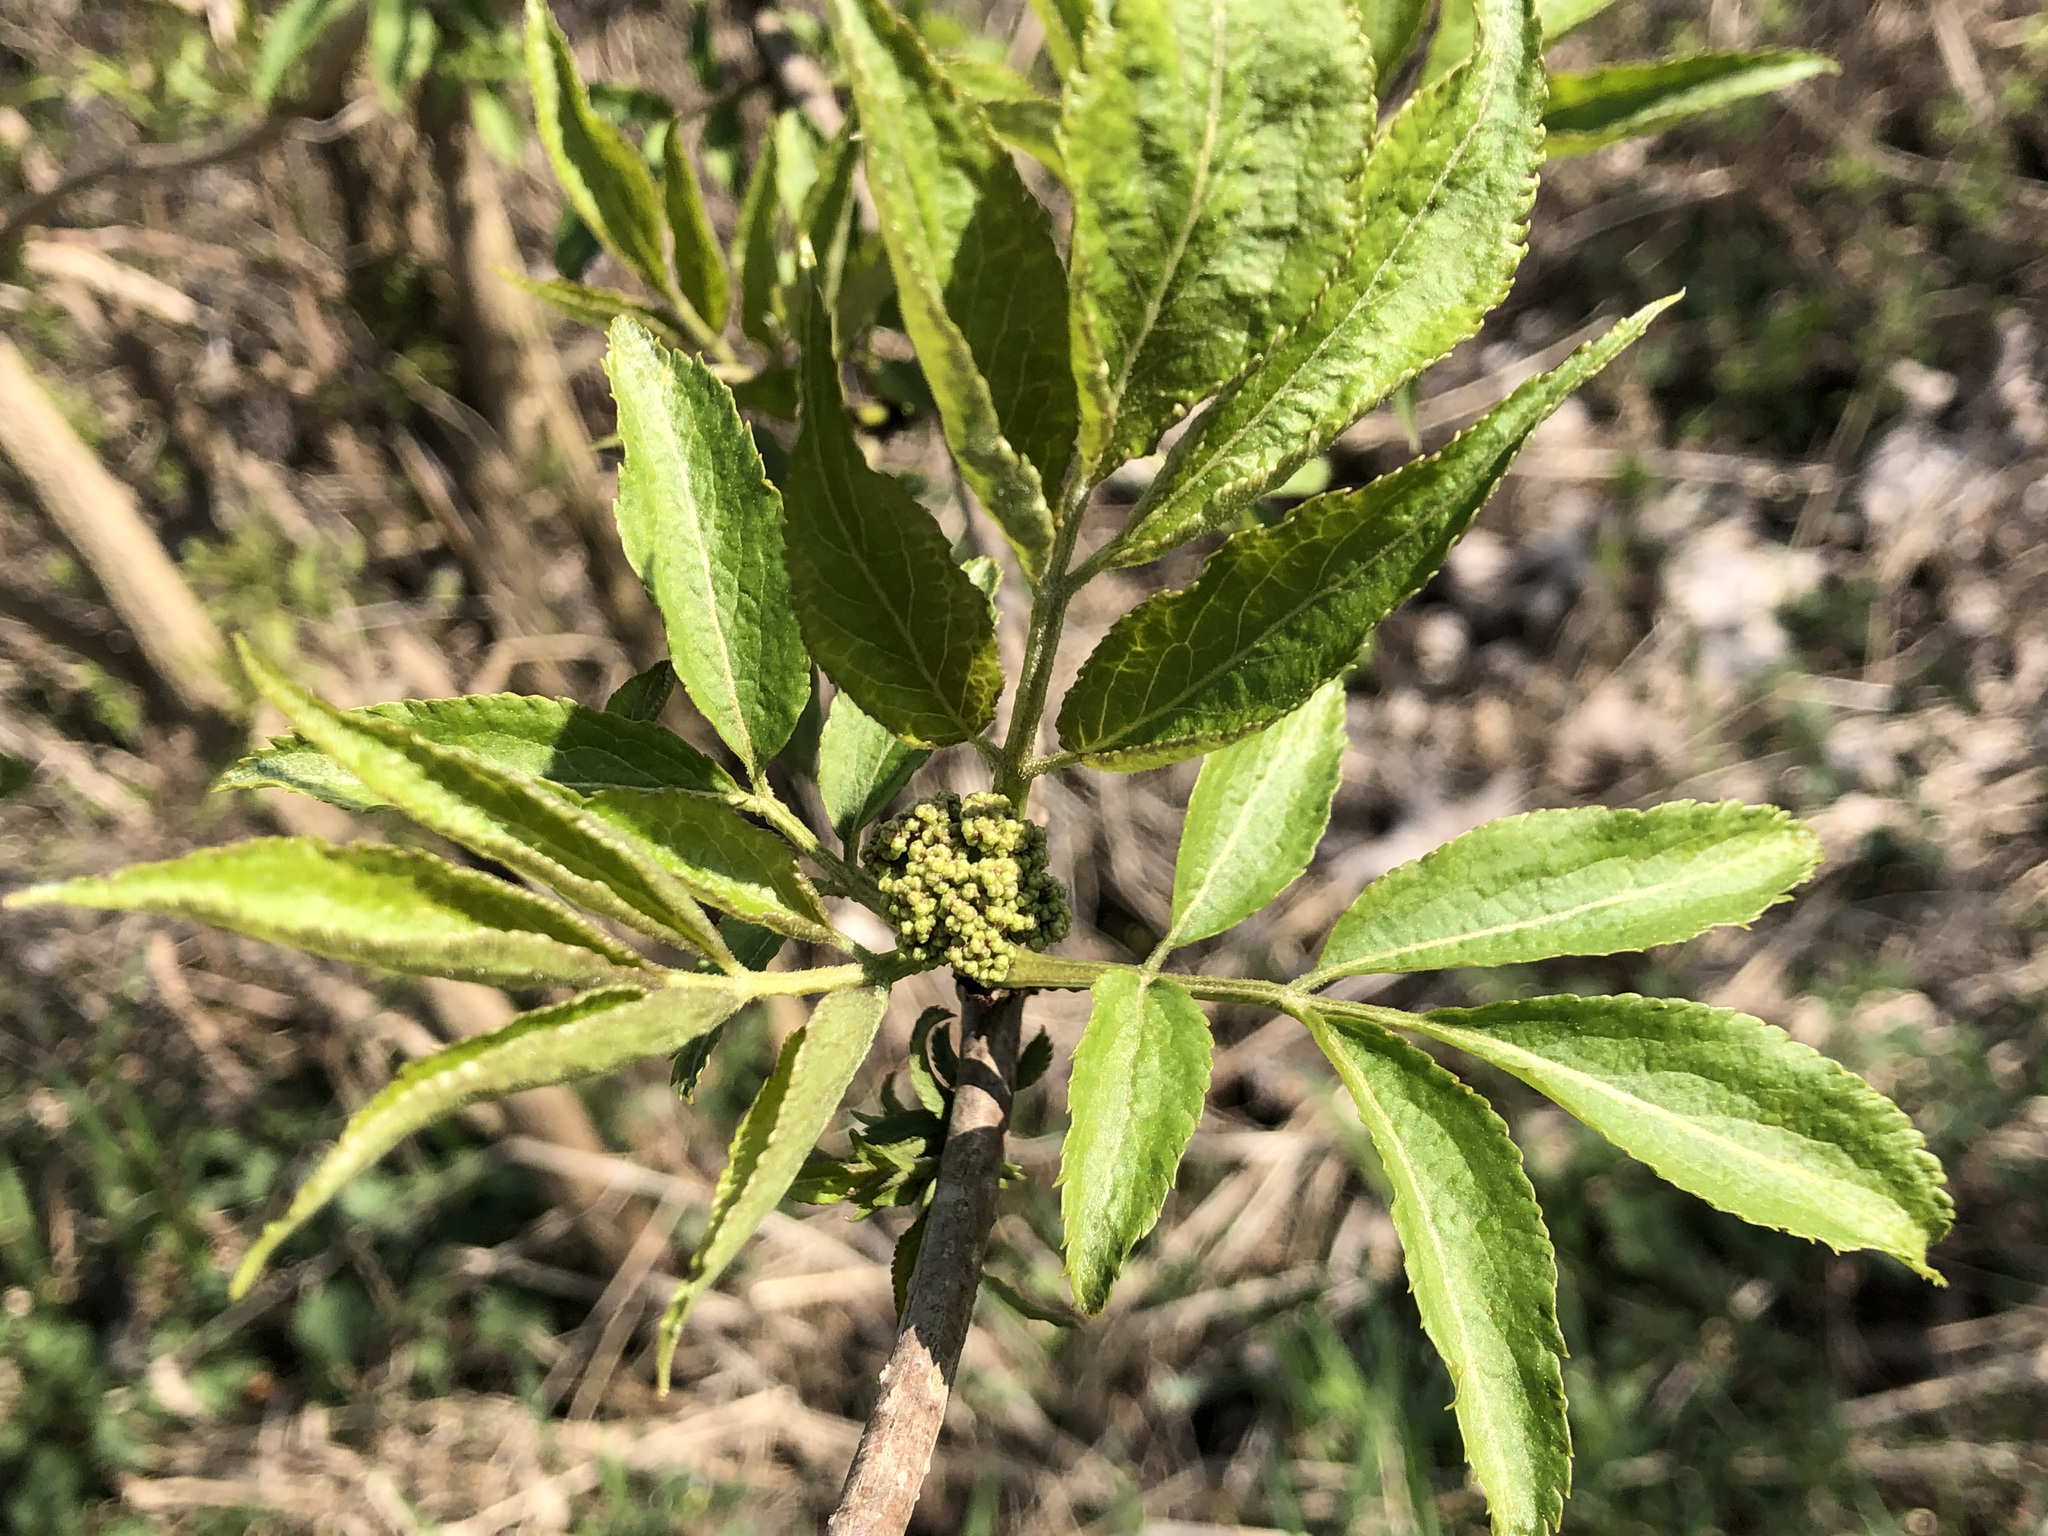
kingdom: Plantae
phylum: Tracheophyta
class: Magnoliopsida
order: Dipsacales
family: Viburnaceae
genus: Sambucus
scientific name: Sambucus nigra
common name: Elder
